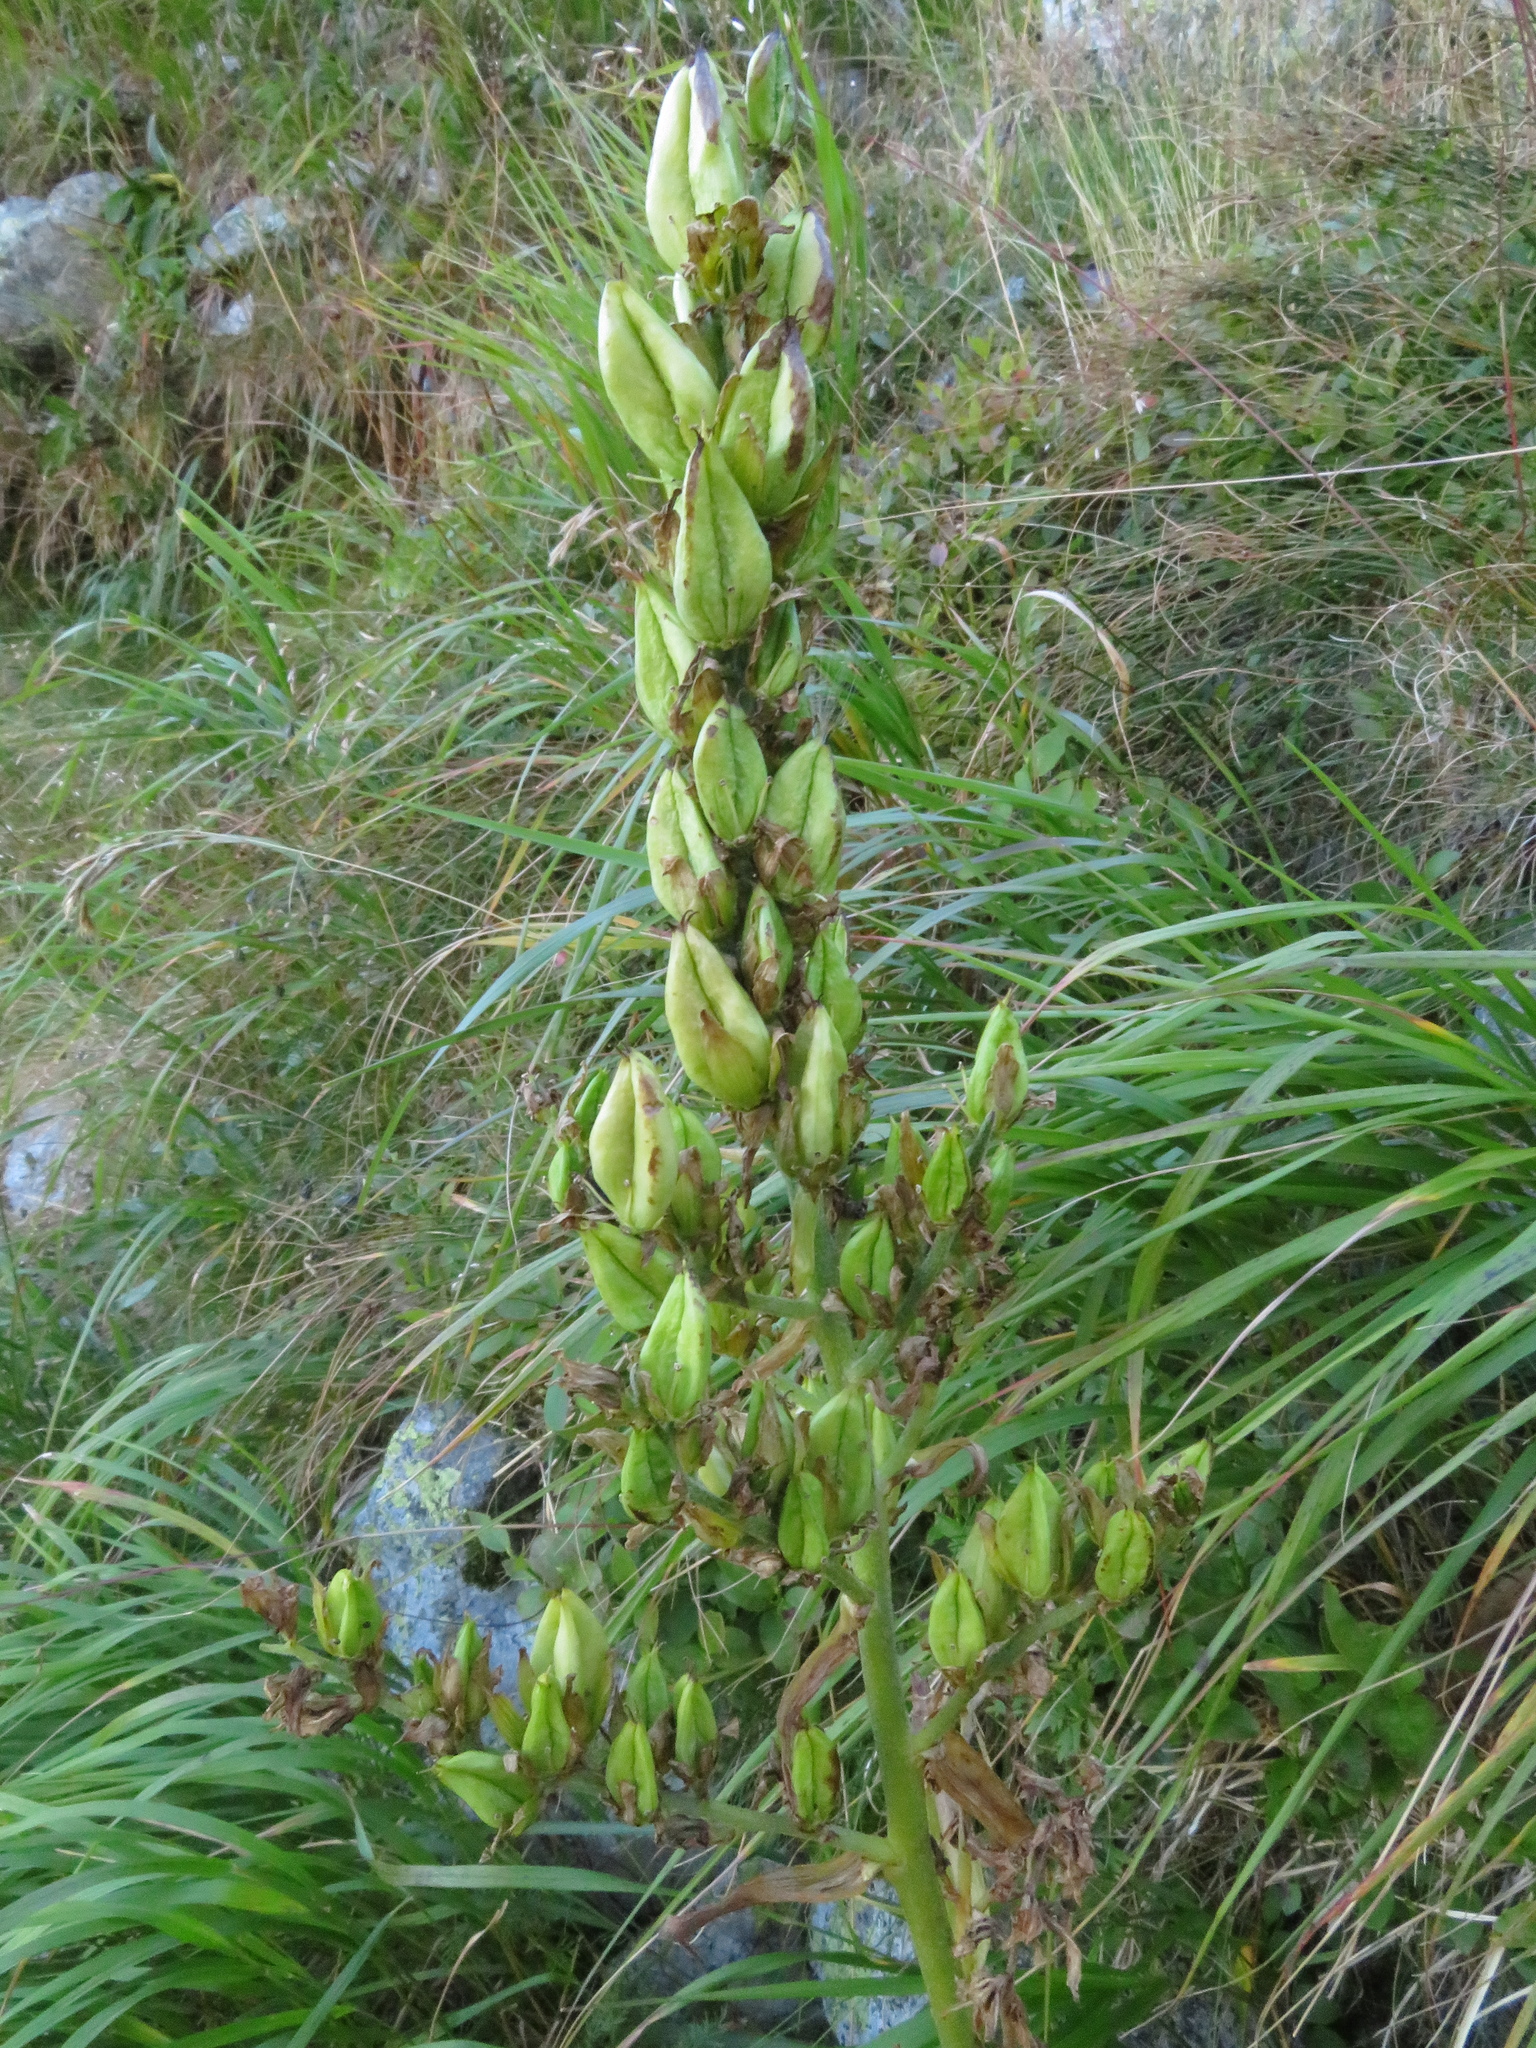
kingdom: Plantae
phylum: Tracheophyta
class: Liliopsida
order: Liliales
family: Melanthiaceae
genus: Veratrum
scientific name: Veratrum lobelianum
